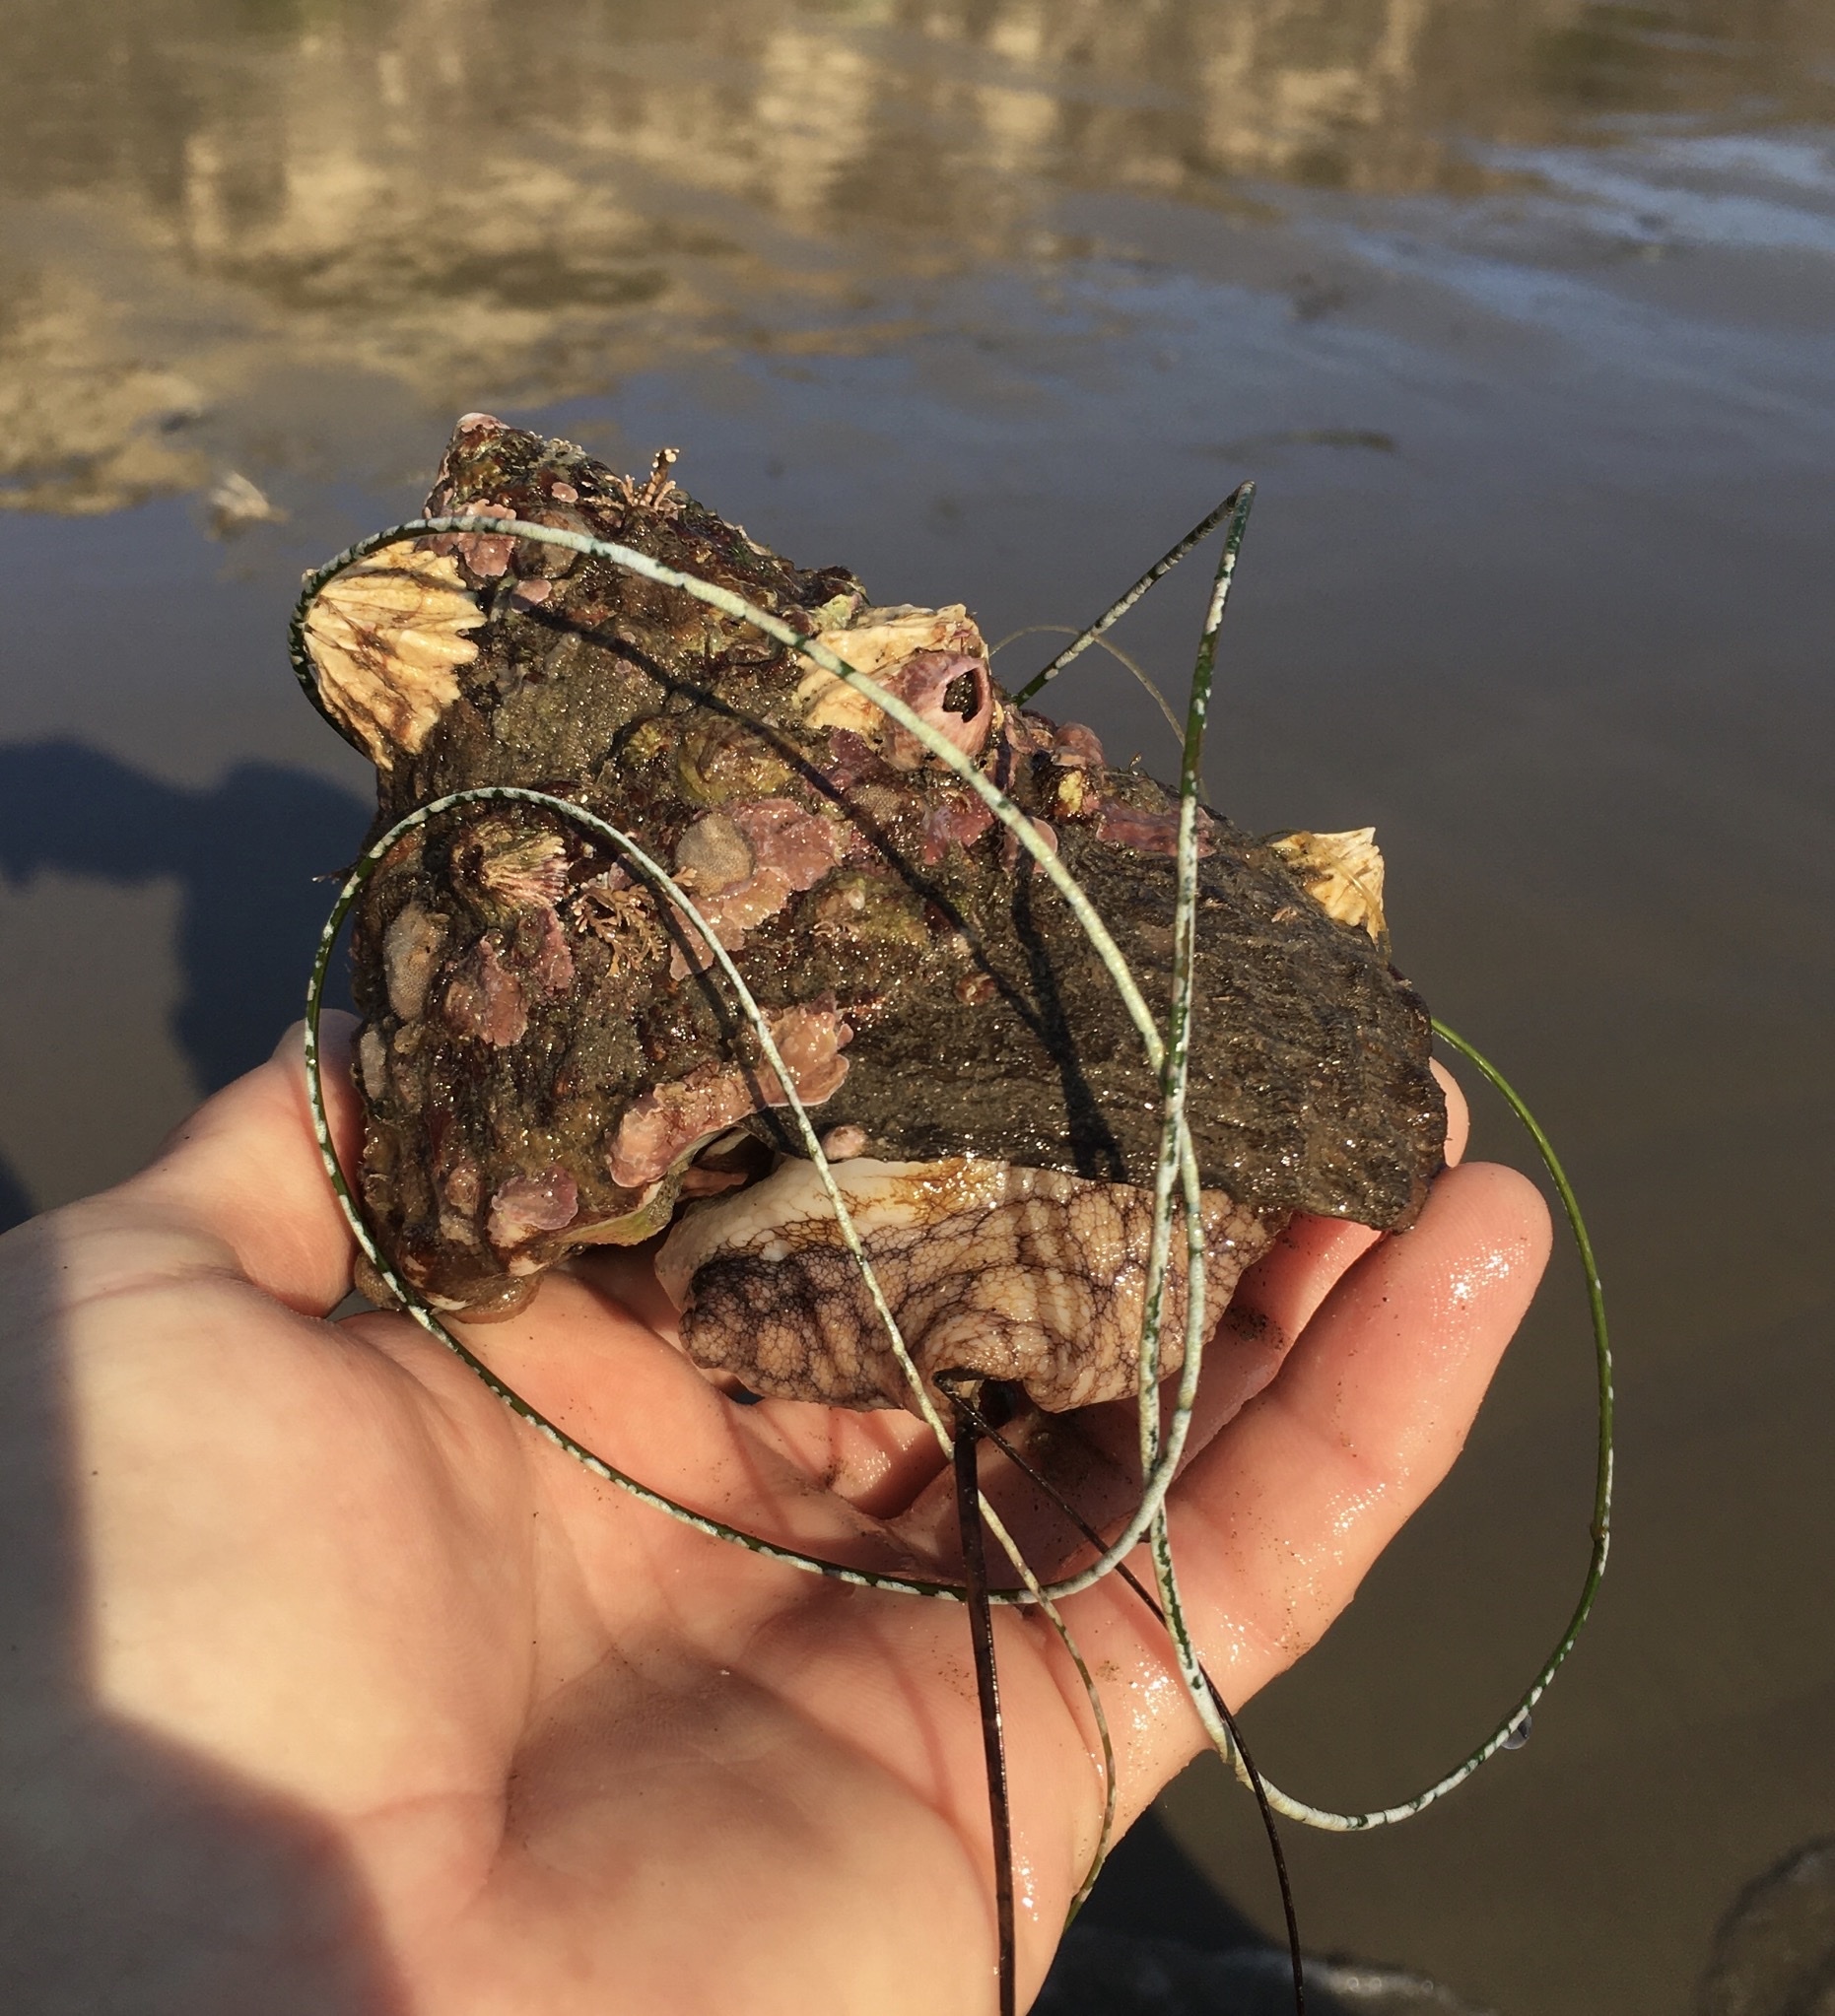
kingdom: Animalia
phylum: Mollusca
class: Gastropoda
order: Trochida
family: Turbinidae
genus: Megastraea
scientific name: Megastraea undosa
